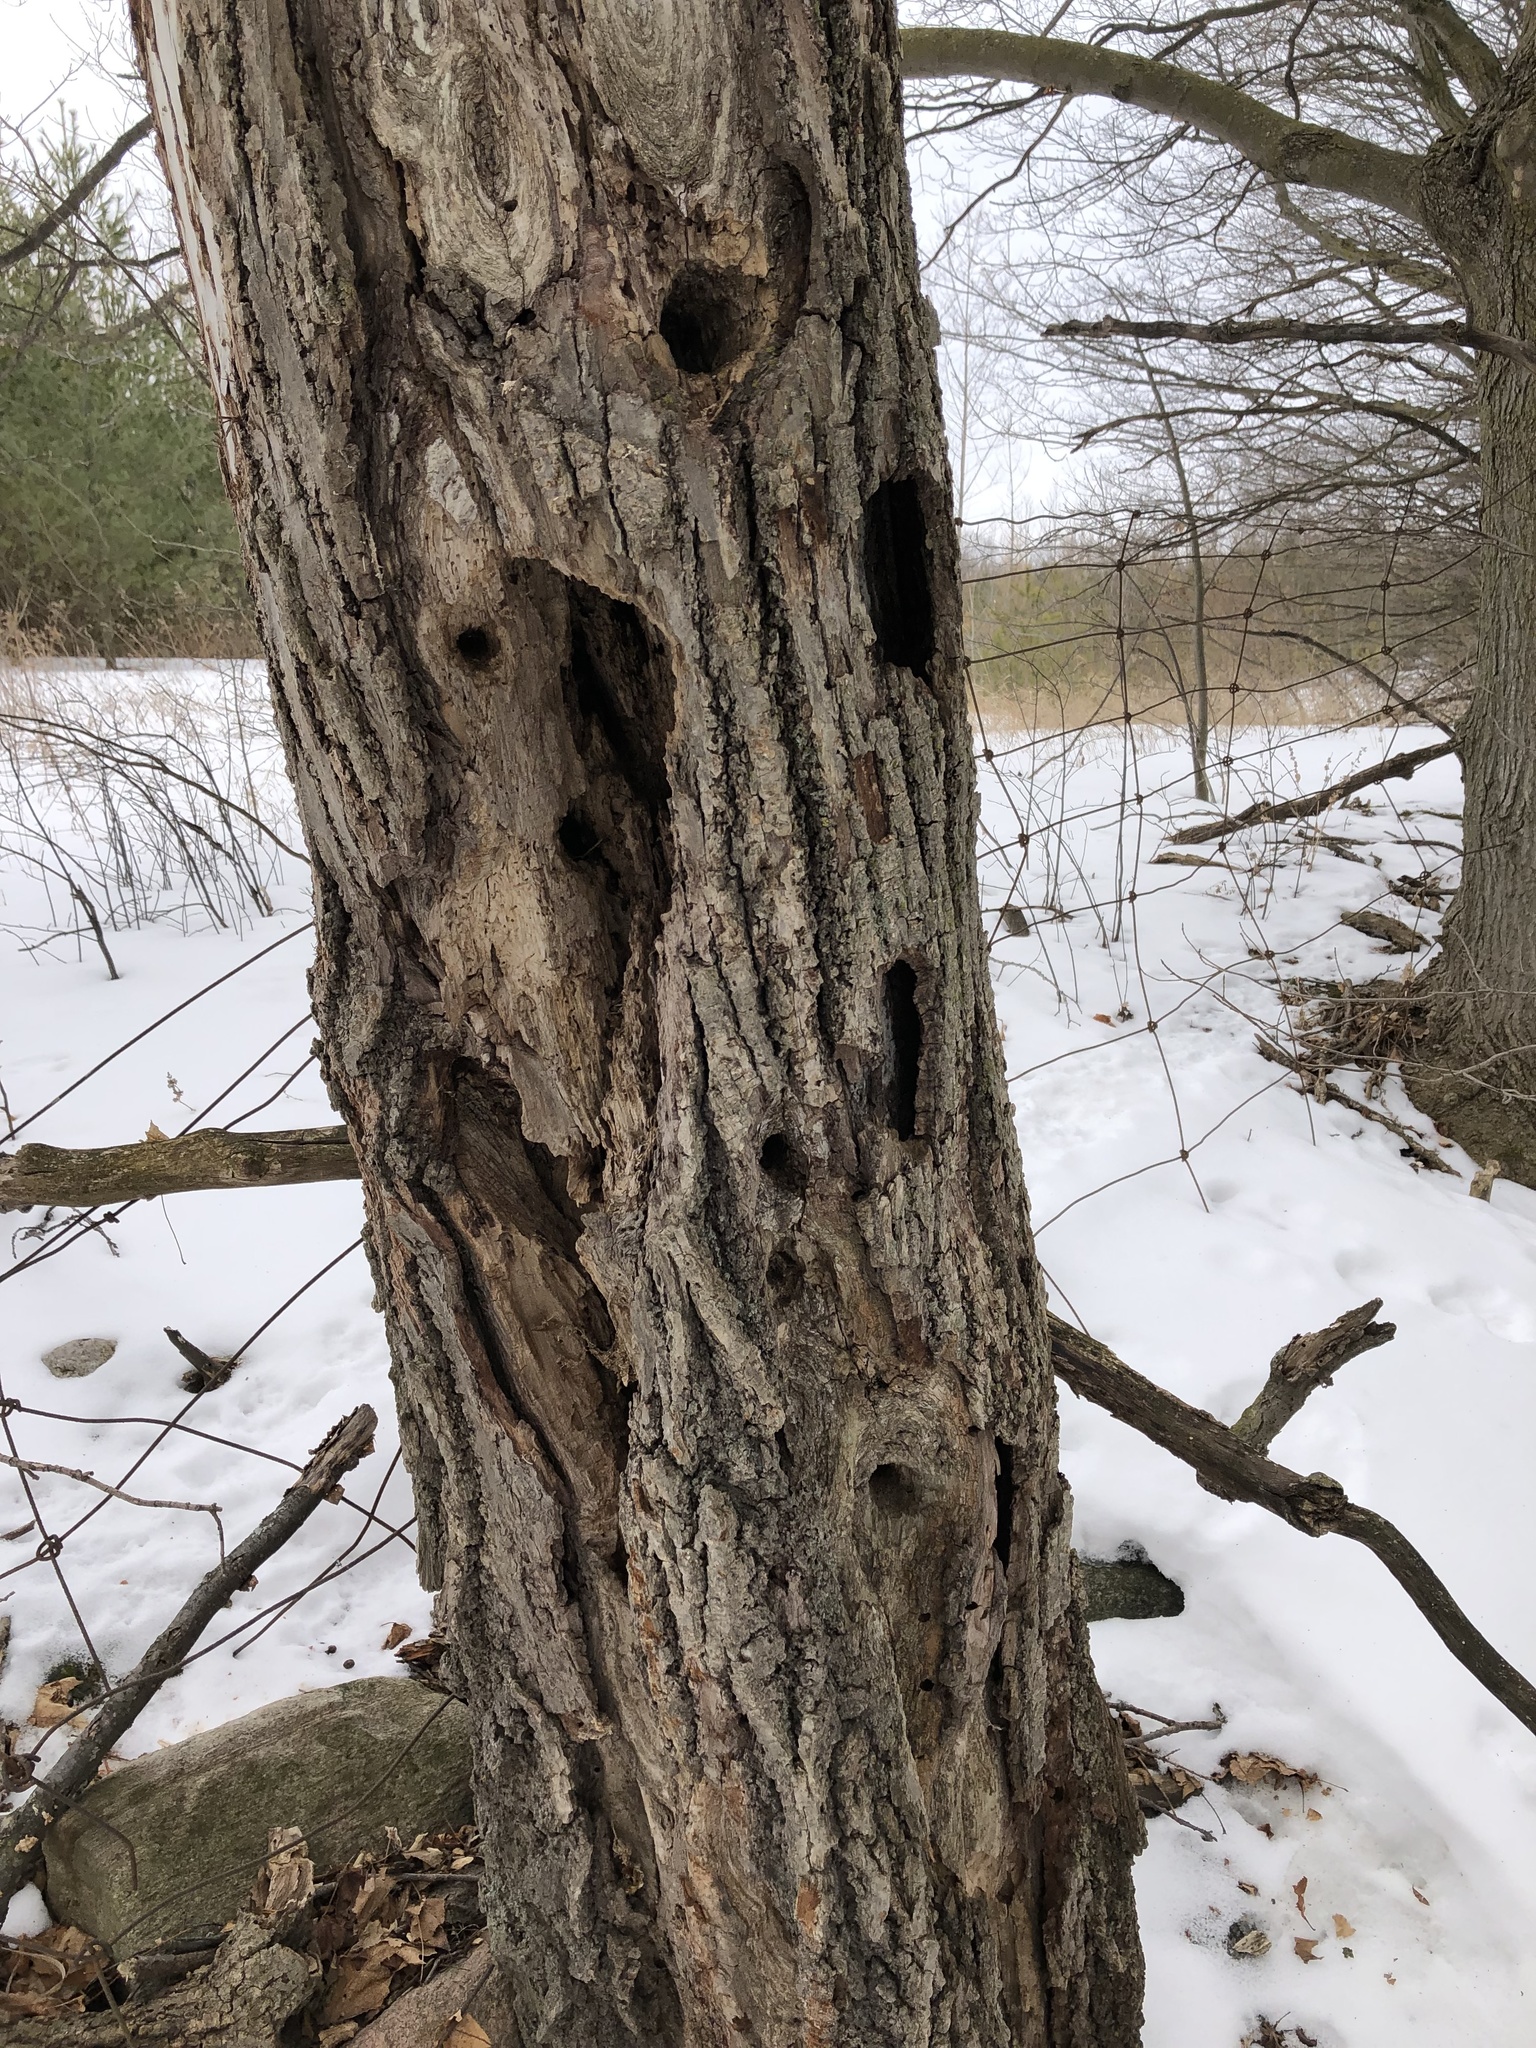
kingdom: Animalia
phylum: Chordata
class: Aves
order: Piciformes
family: Picidae
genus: Dryocopus
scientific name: Dryocopus pileatus
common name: Pileated woodpecker
